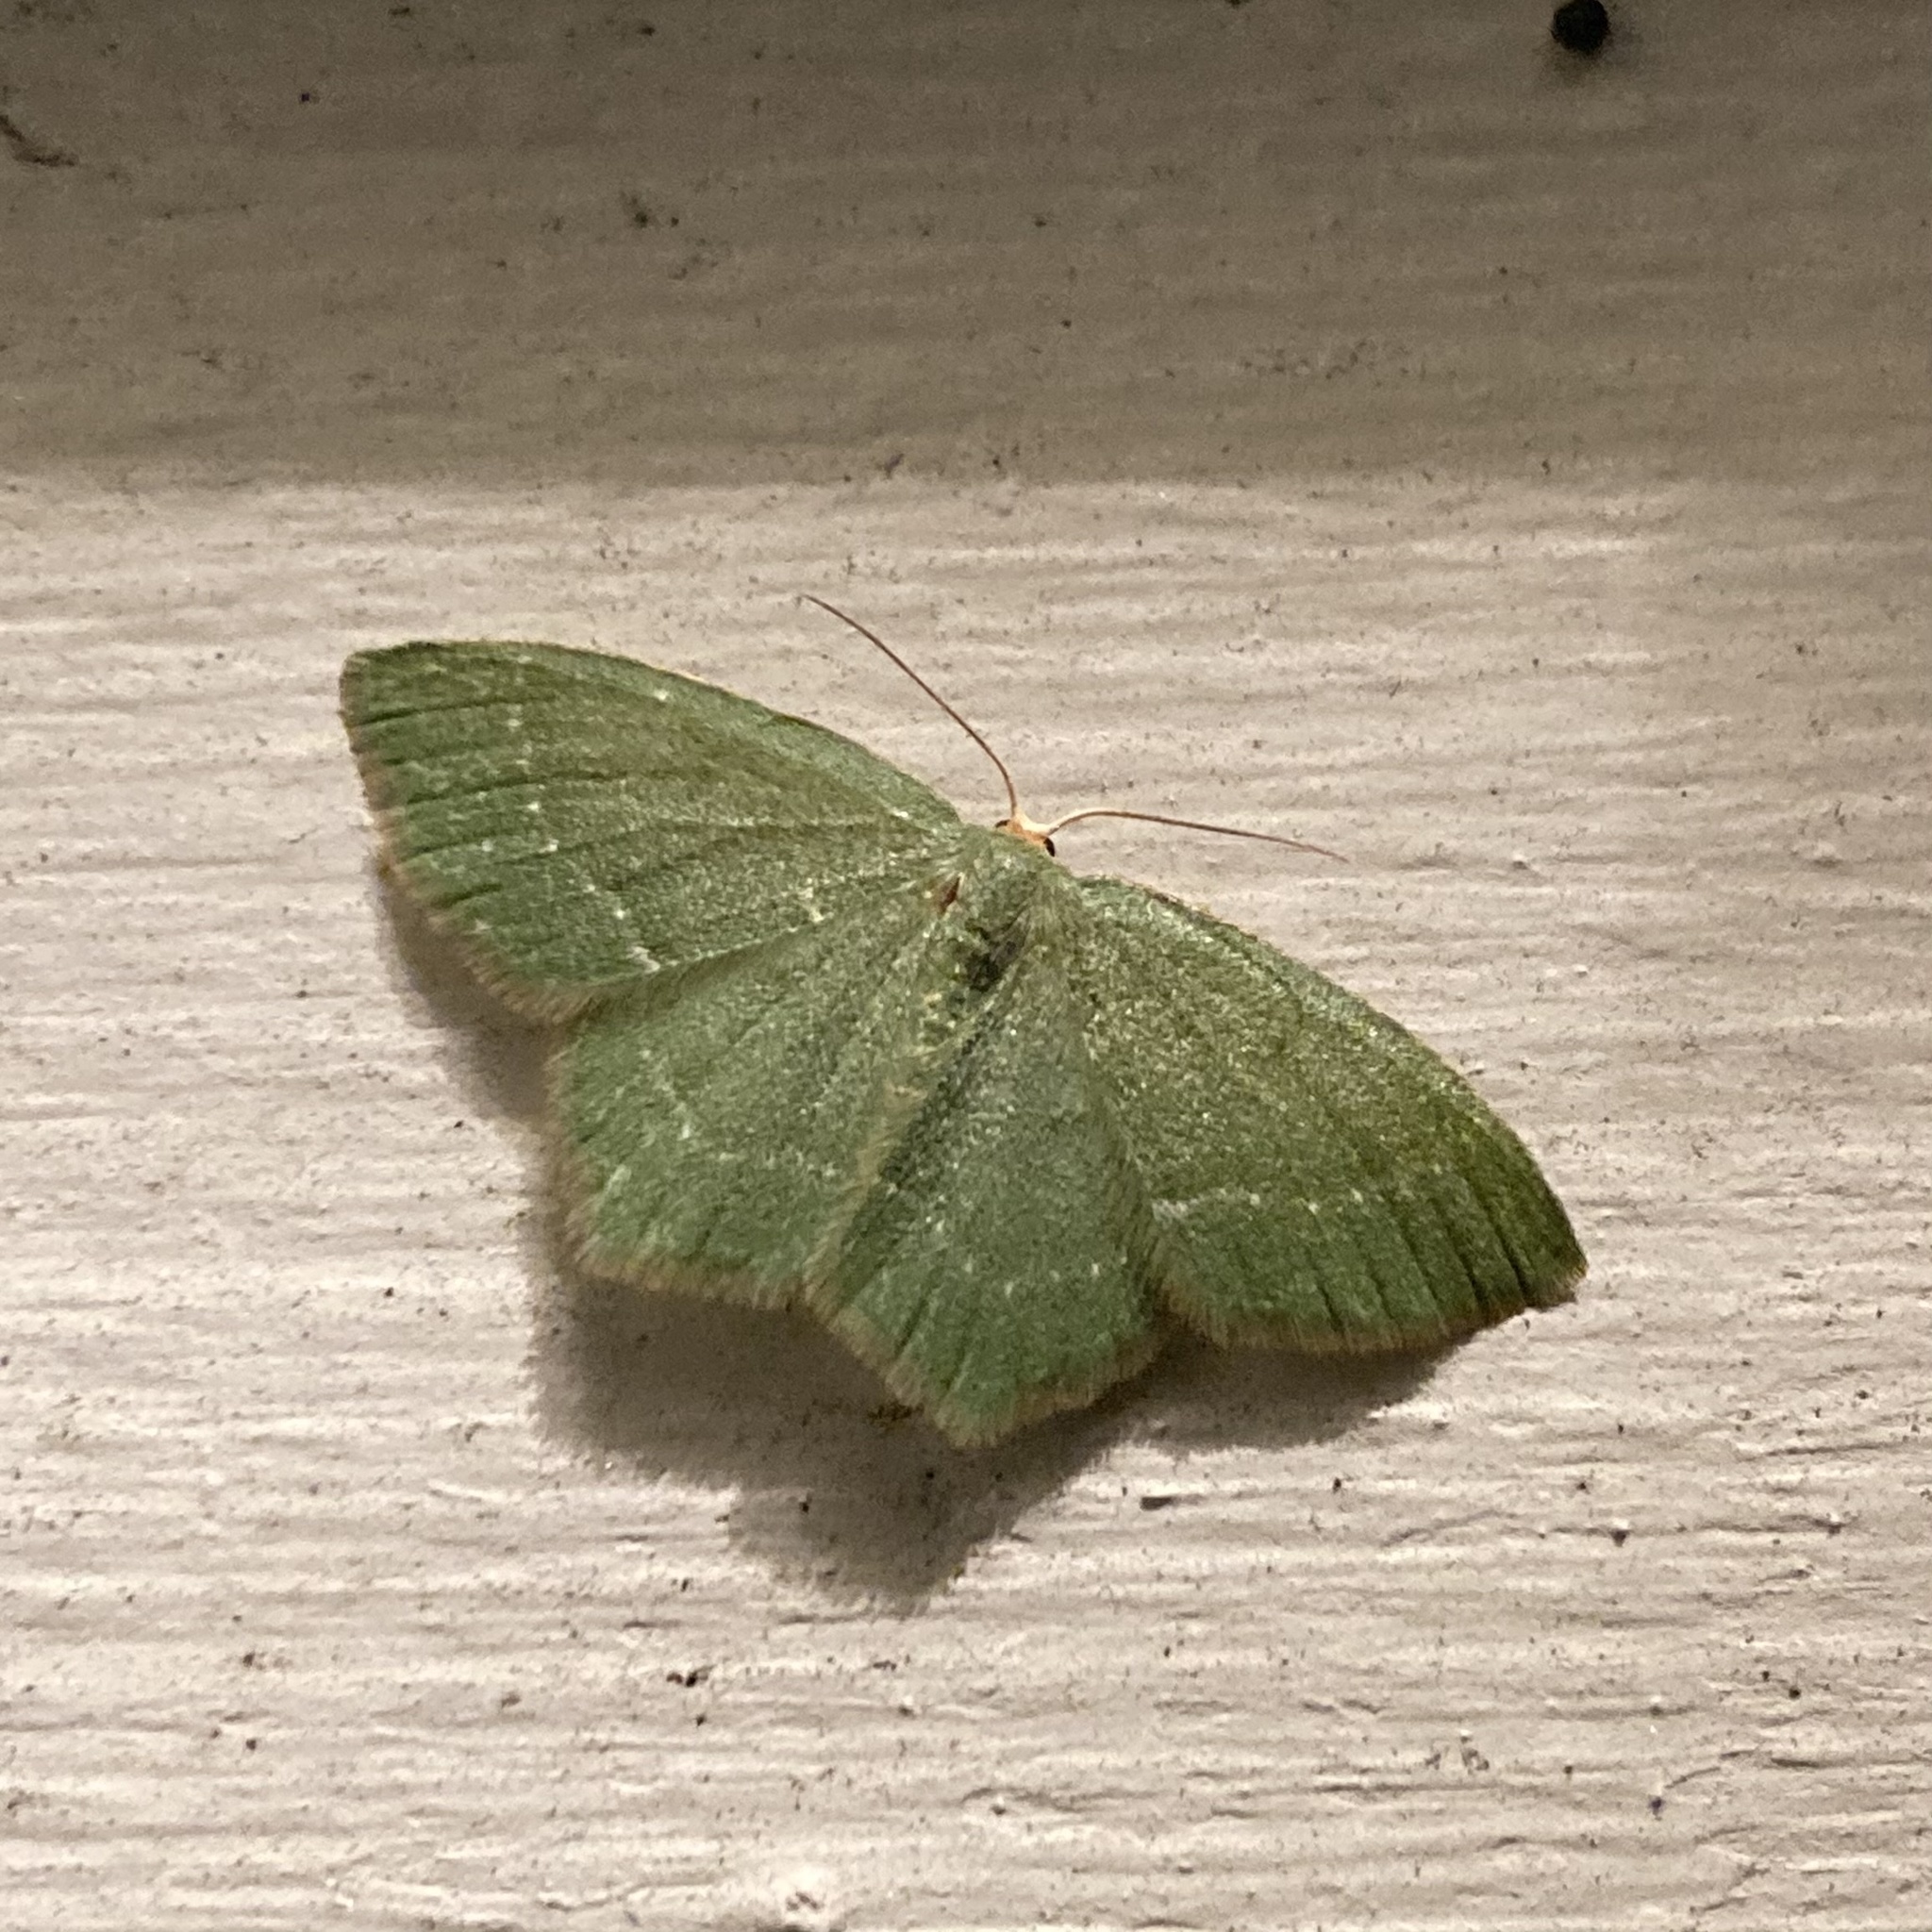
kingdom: Animalia
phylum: Arthropoda
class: Insecta
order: Lepidoptera
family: Geometridae
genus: Mesothea
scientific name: Mesothea incertata
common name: Day emerald moth
